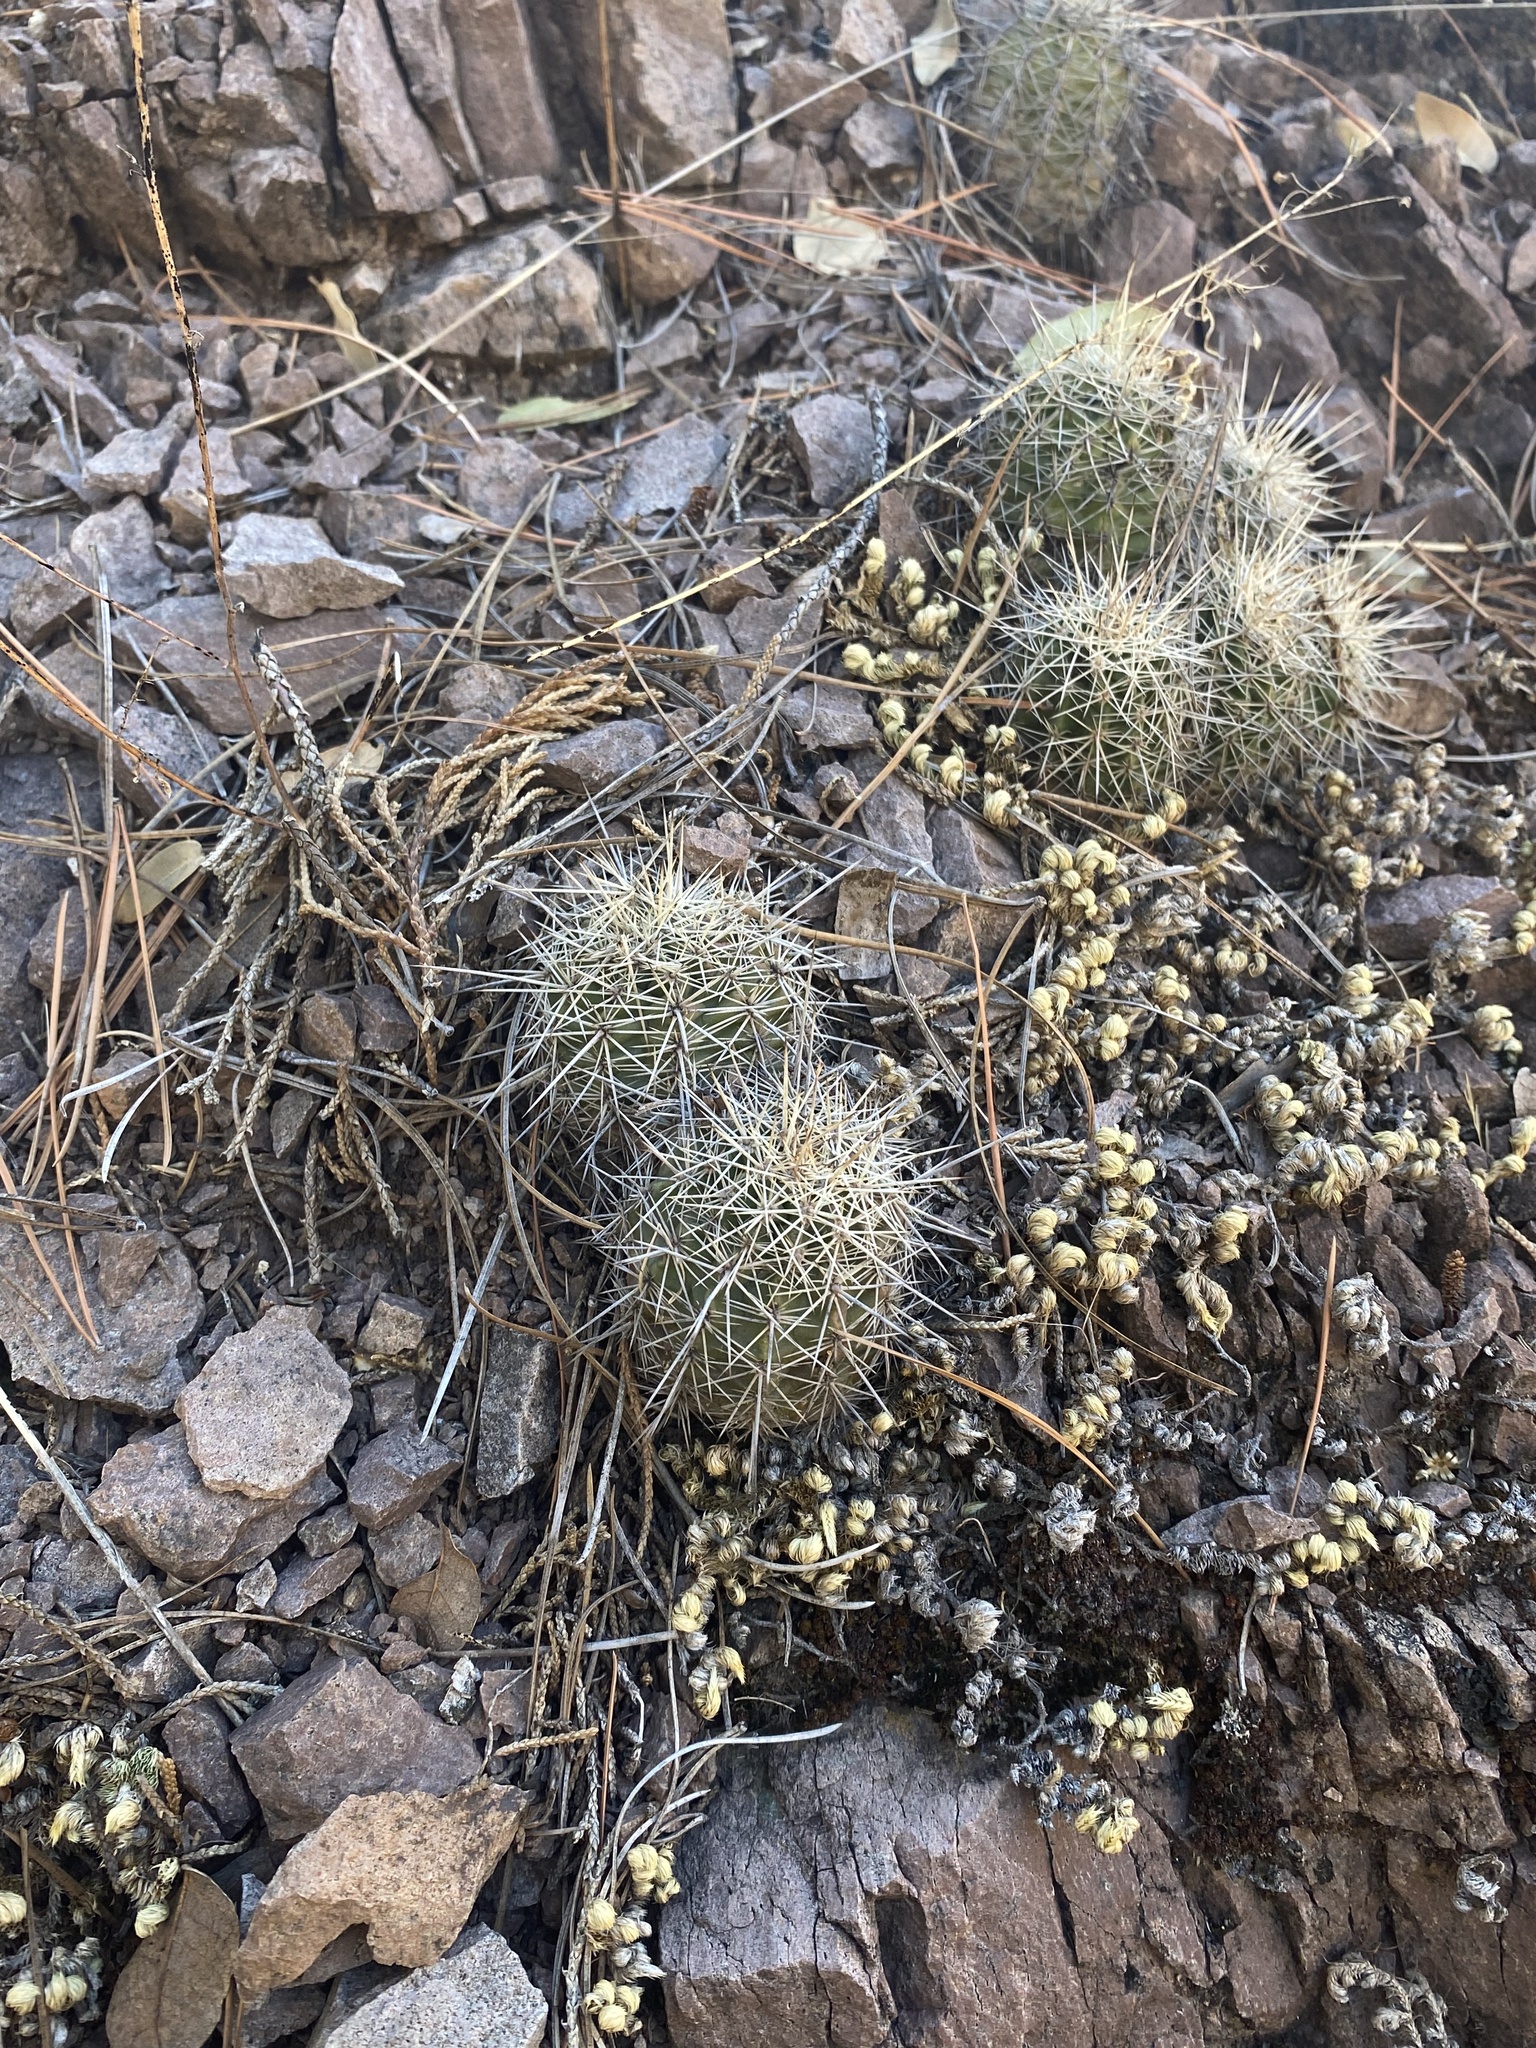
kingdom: Plantae
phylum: Tracheophyta
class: Magnoliopsida
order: Caryophyllales
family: Cactaceae
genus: Echinocereus
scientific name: Echinocereus polyacanthus
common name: Mojave mound cactus
